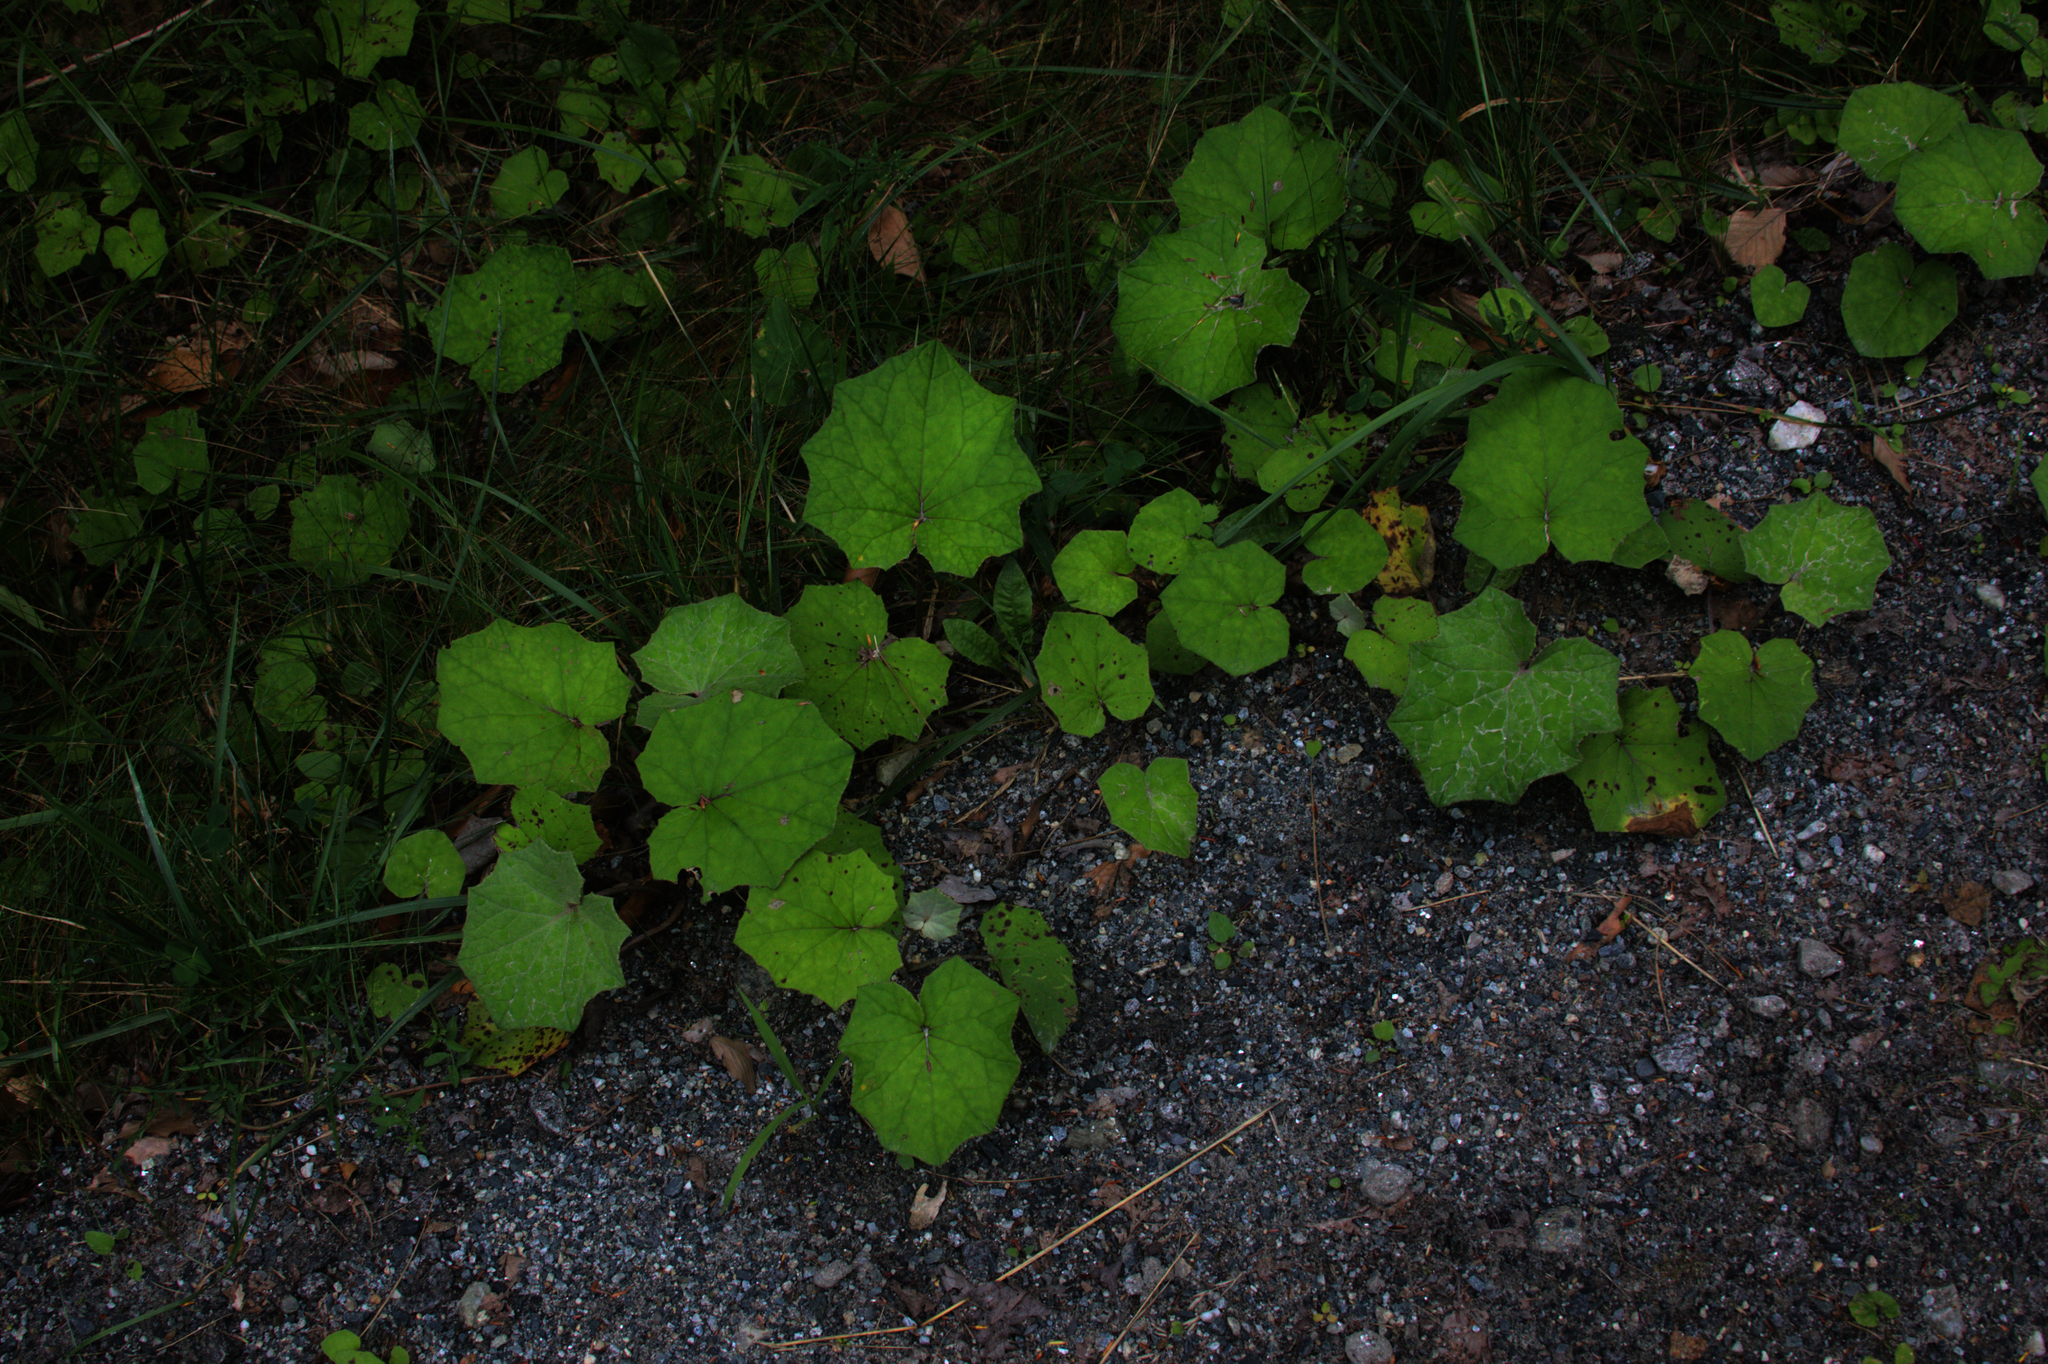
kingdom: Plantae
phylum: Tracheophyta
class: Magnoliopsida
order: Asterales
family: Asteraceae
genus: Tussilago
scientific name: Tussilago farfara
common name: Coltsfoot
